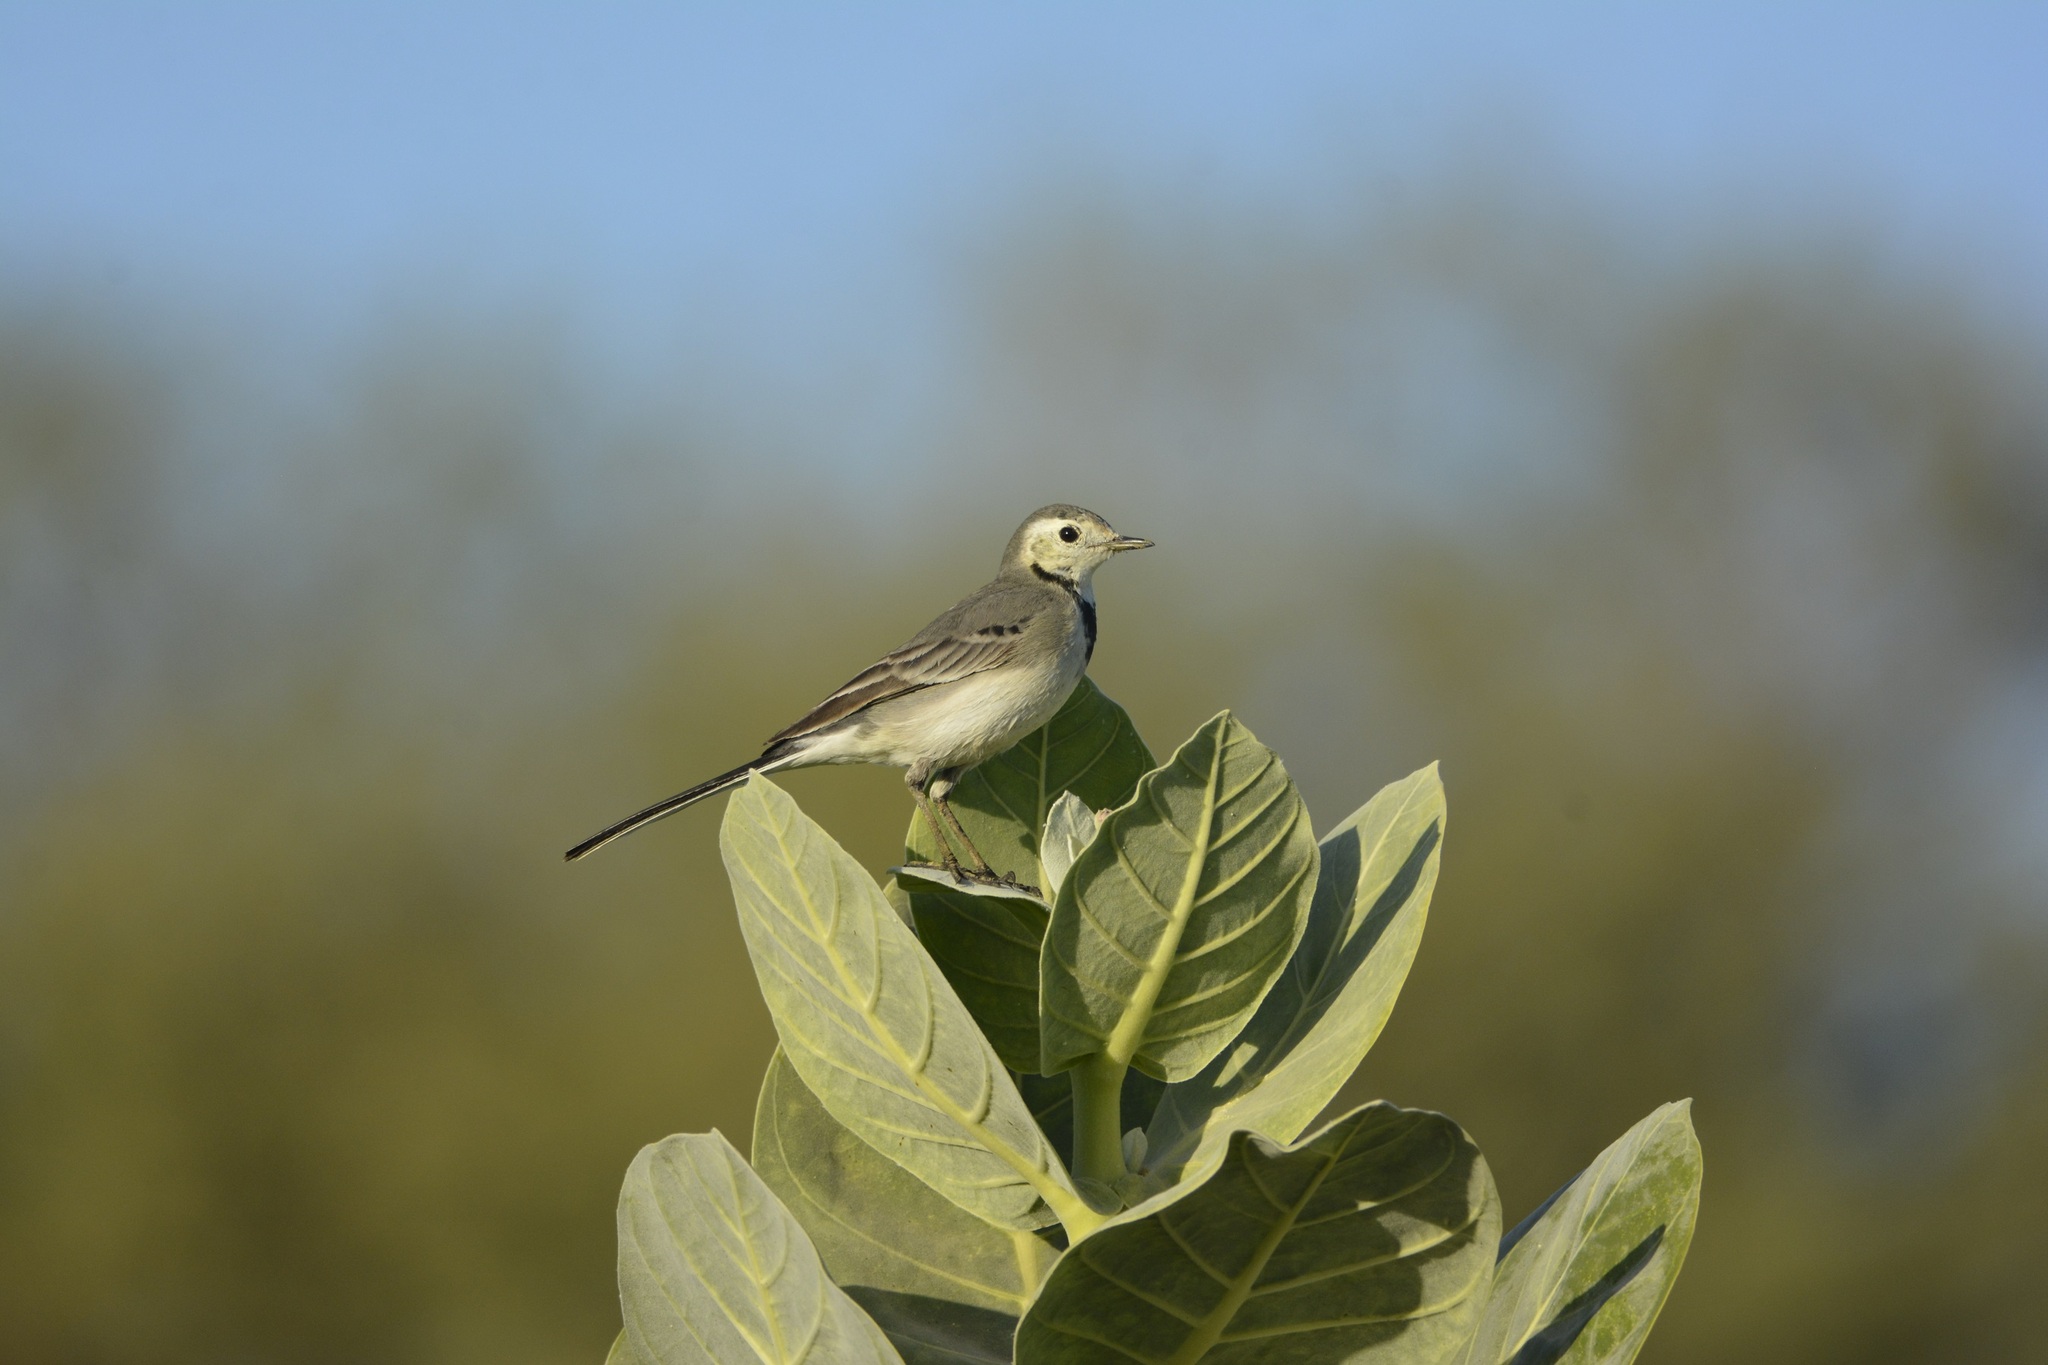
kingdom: Animalia
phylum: Chordata
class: Aves
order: Passeriformes
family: Motacillidae
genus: Motacilla
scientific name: Motacilla alba
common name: White wagtail
